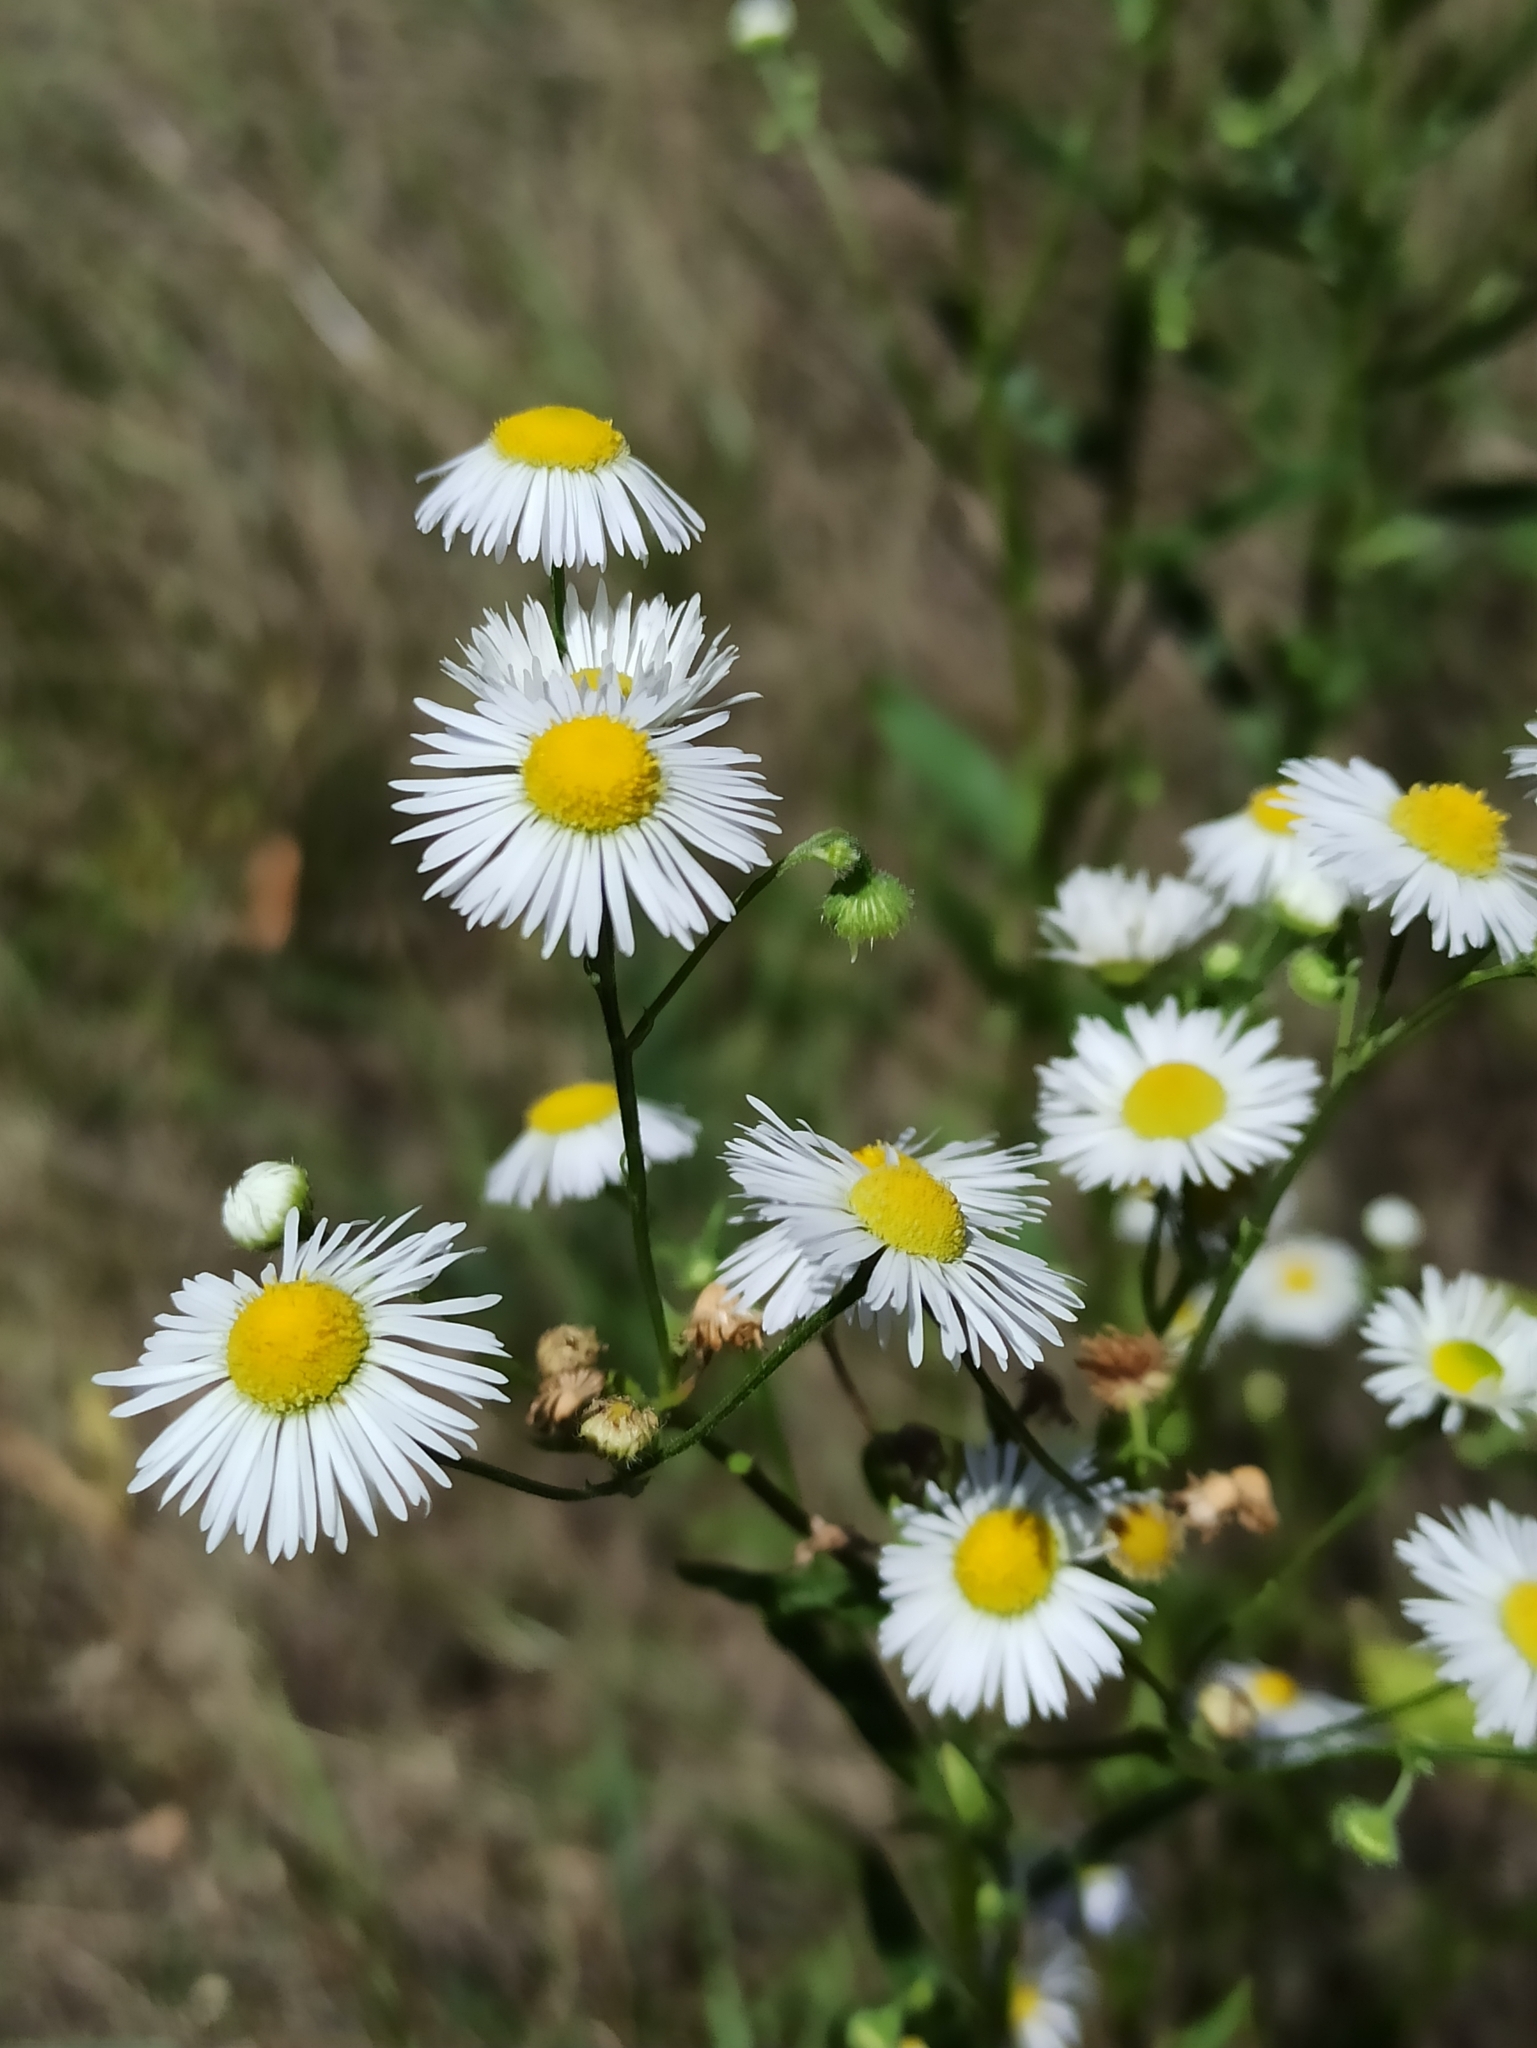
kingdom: Plantae
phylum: Tracheophyta
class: Magnoliopsida
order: Asterales
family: Asteraceae
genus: Erigeron
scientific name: Erigeron annuus
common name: Tall fleabane
